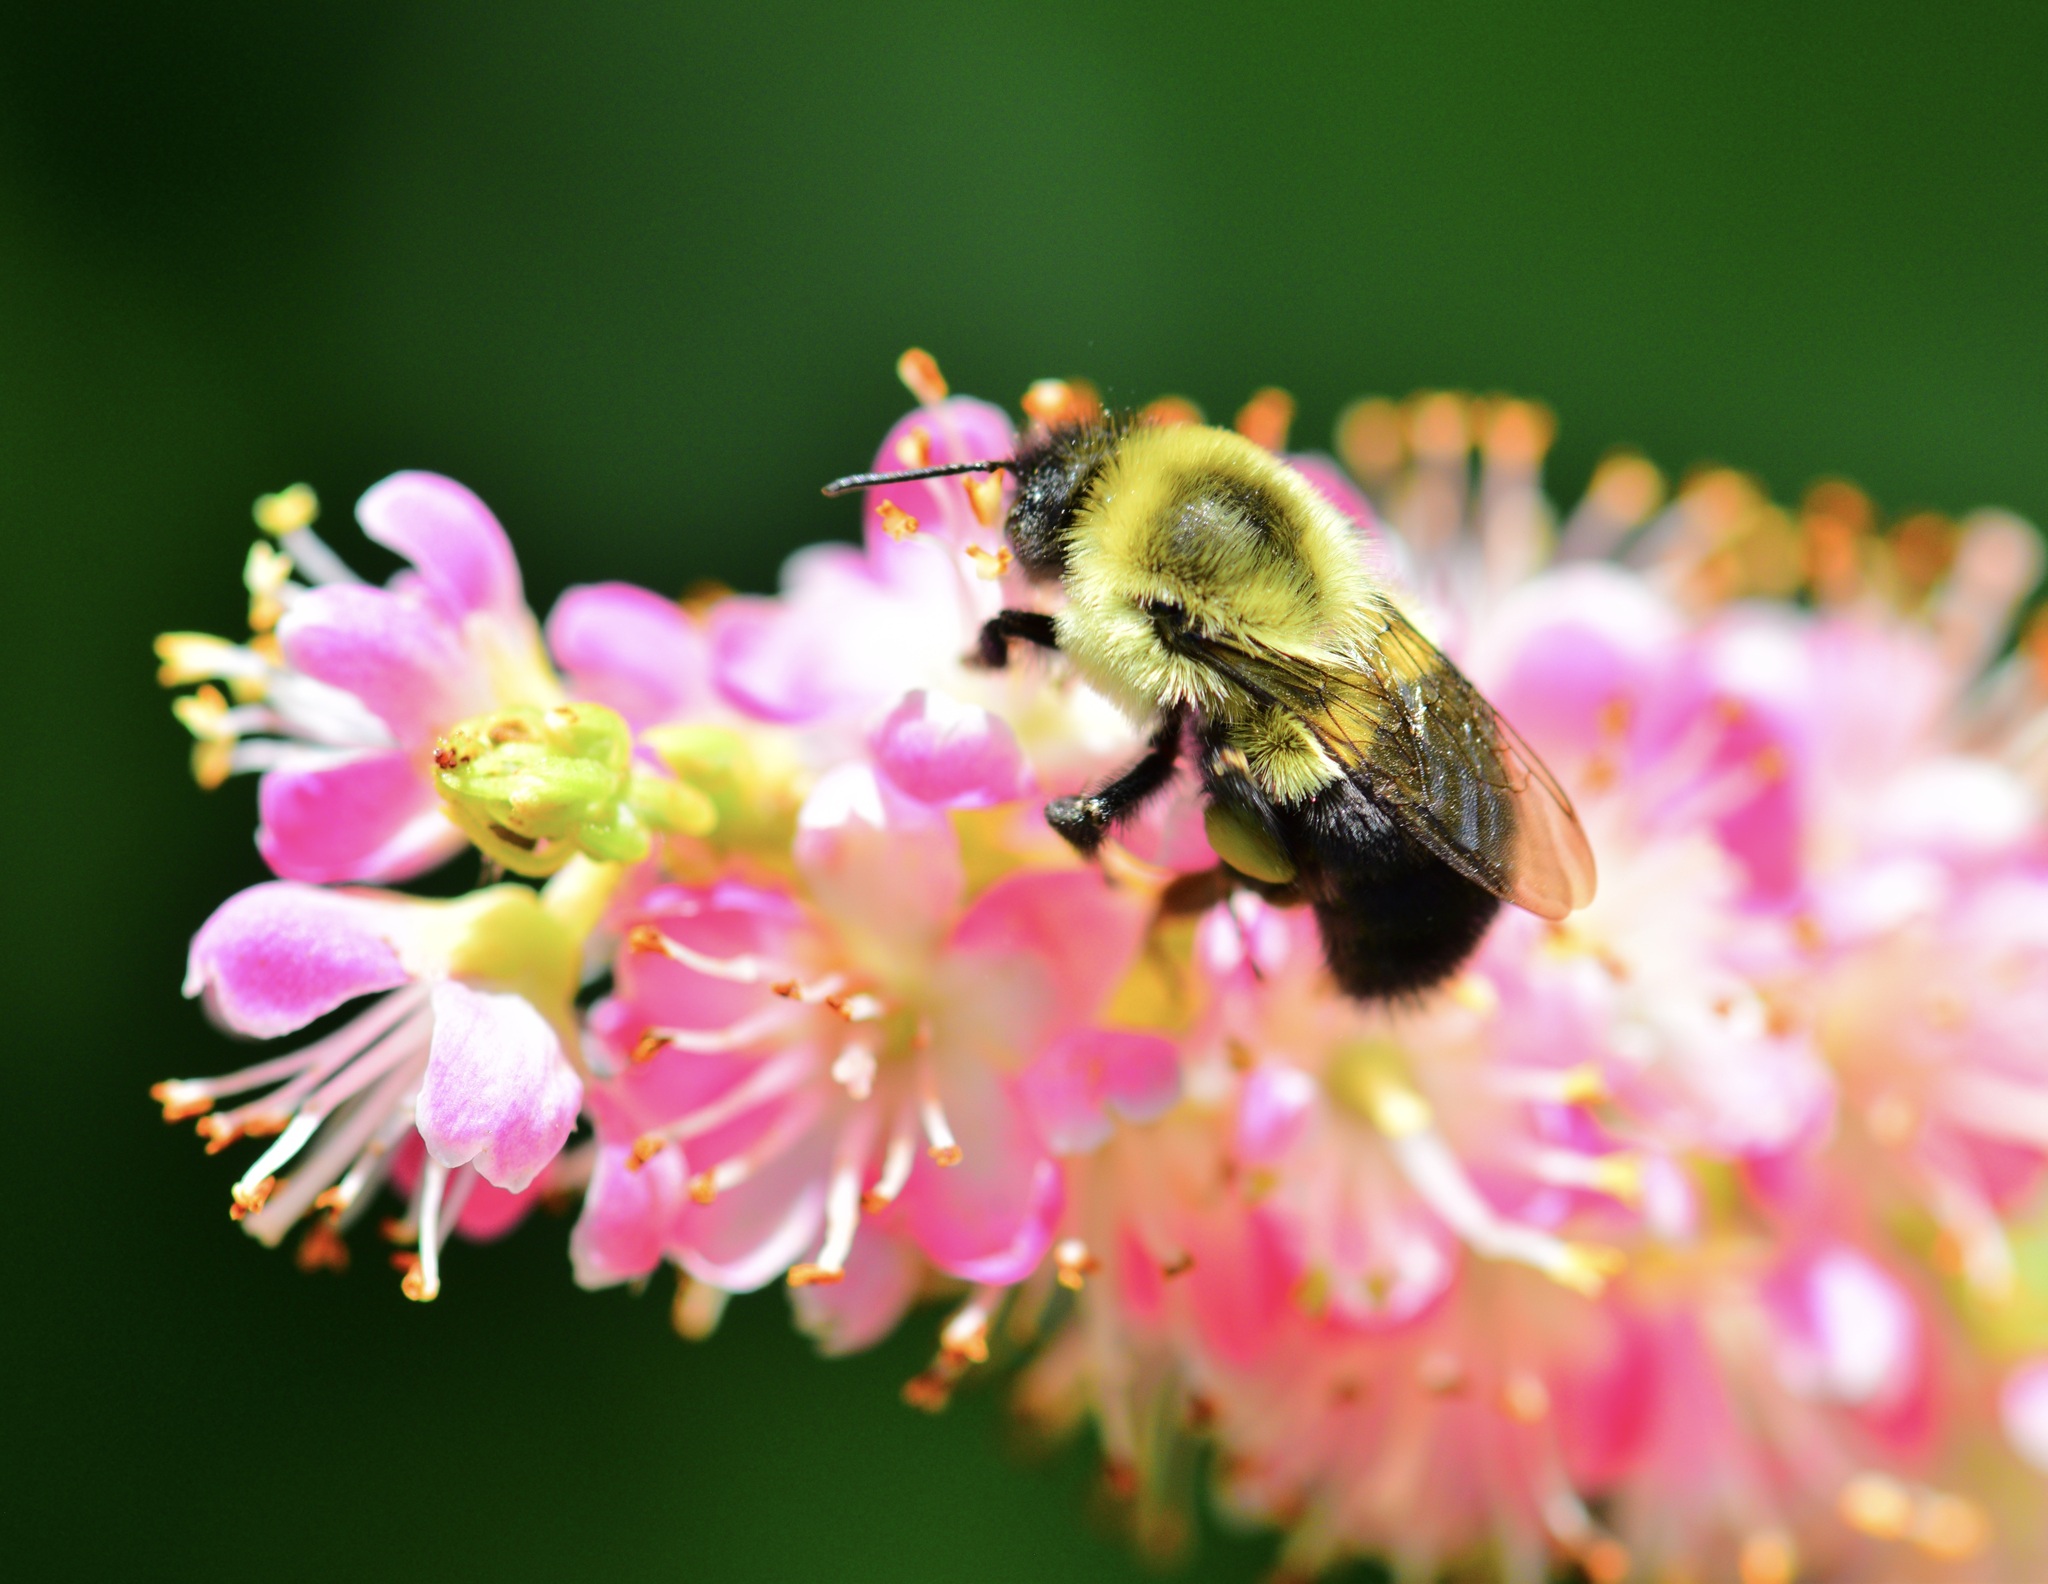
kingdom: Animalia
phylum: Arthropoda
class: Insecta
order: Hymenoptera
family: Apidae
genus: Bombus
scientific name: Bombus impatiens
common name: Common eastern bumble bee
